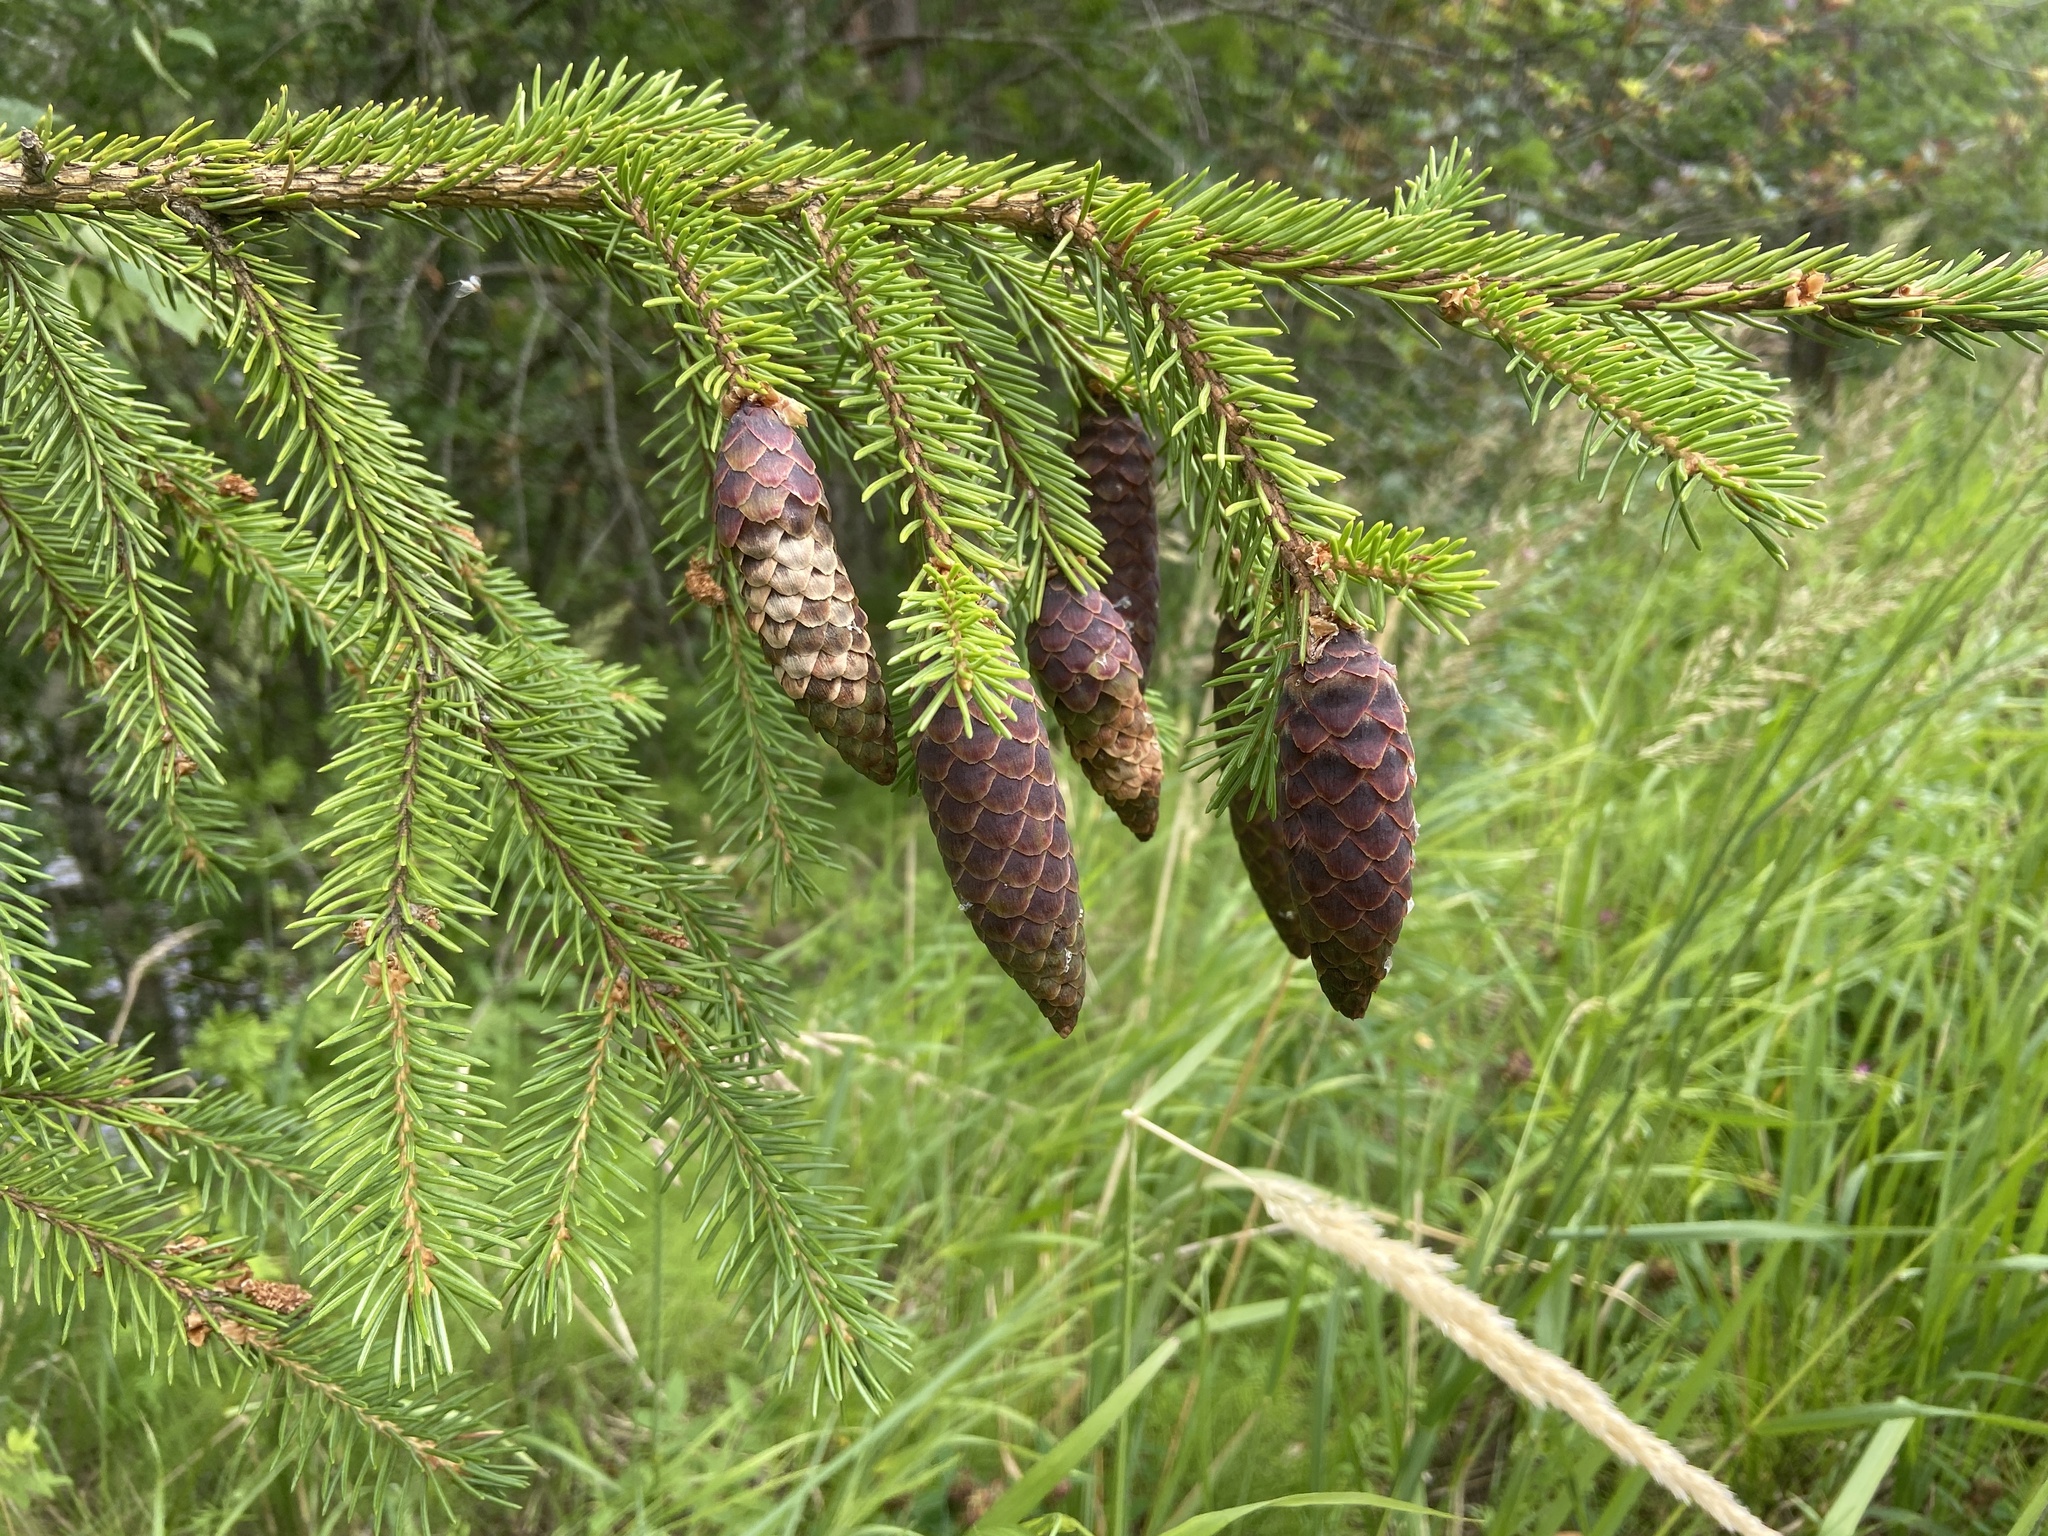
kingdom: Plantae
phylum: Tracheophyta
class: Pinopsida
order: Pinales
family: Pinaceae
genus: Picea
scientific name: Picea abies
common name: Norway spruce
